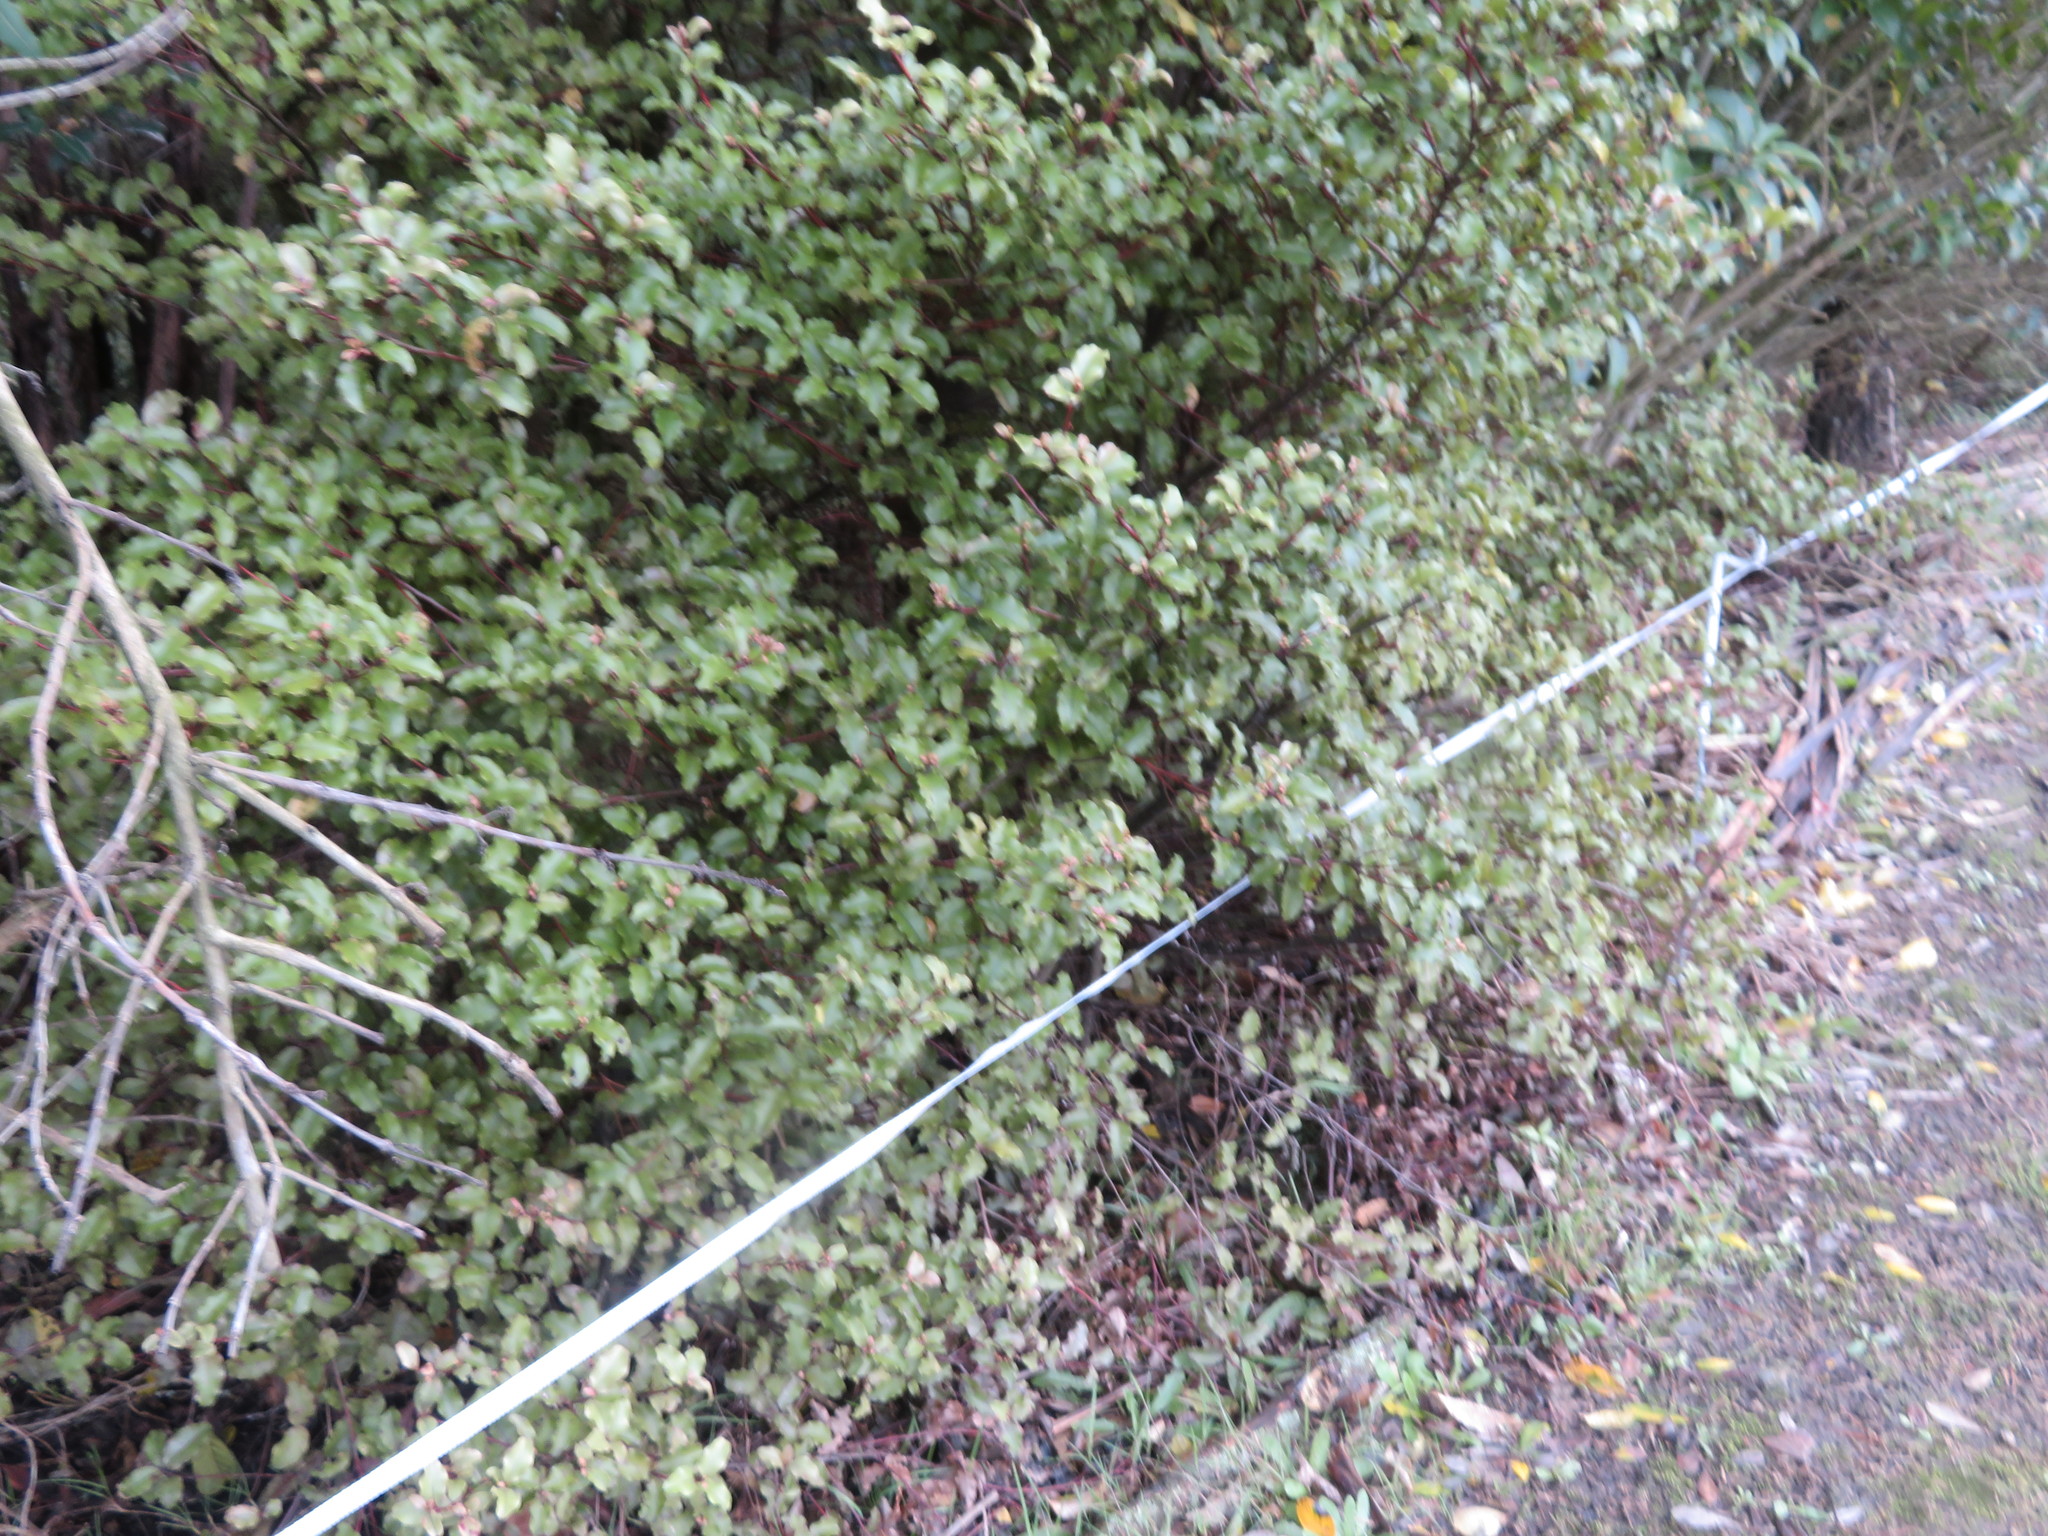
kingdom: Plantae
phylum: Tracheophyta
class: Magnoliopsida
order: Ericales
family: Primulaceae
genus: Myrsine
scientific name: Myrsine australis
